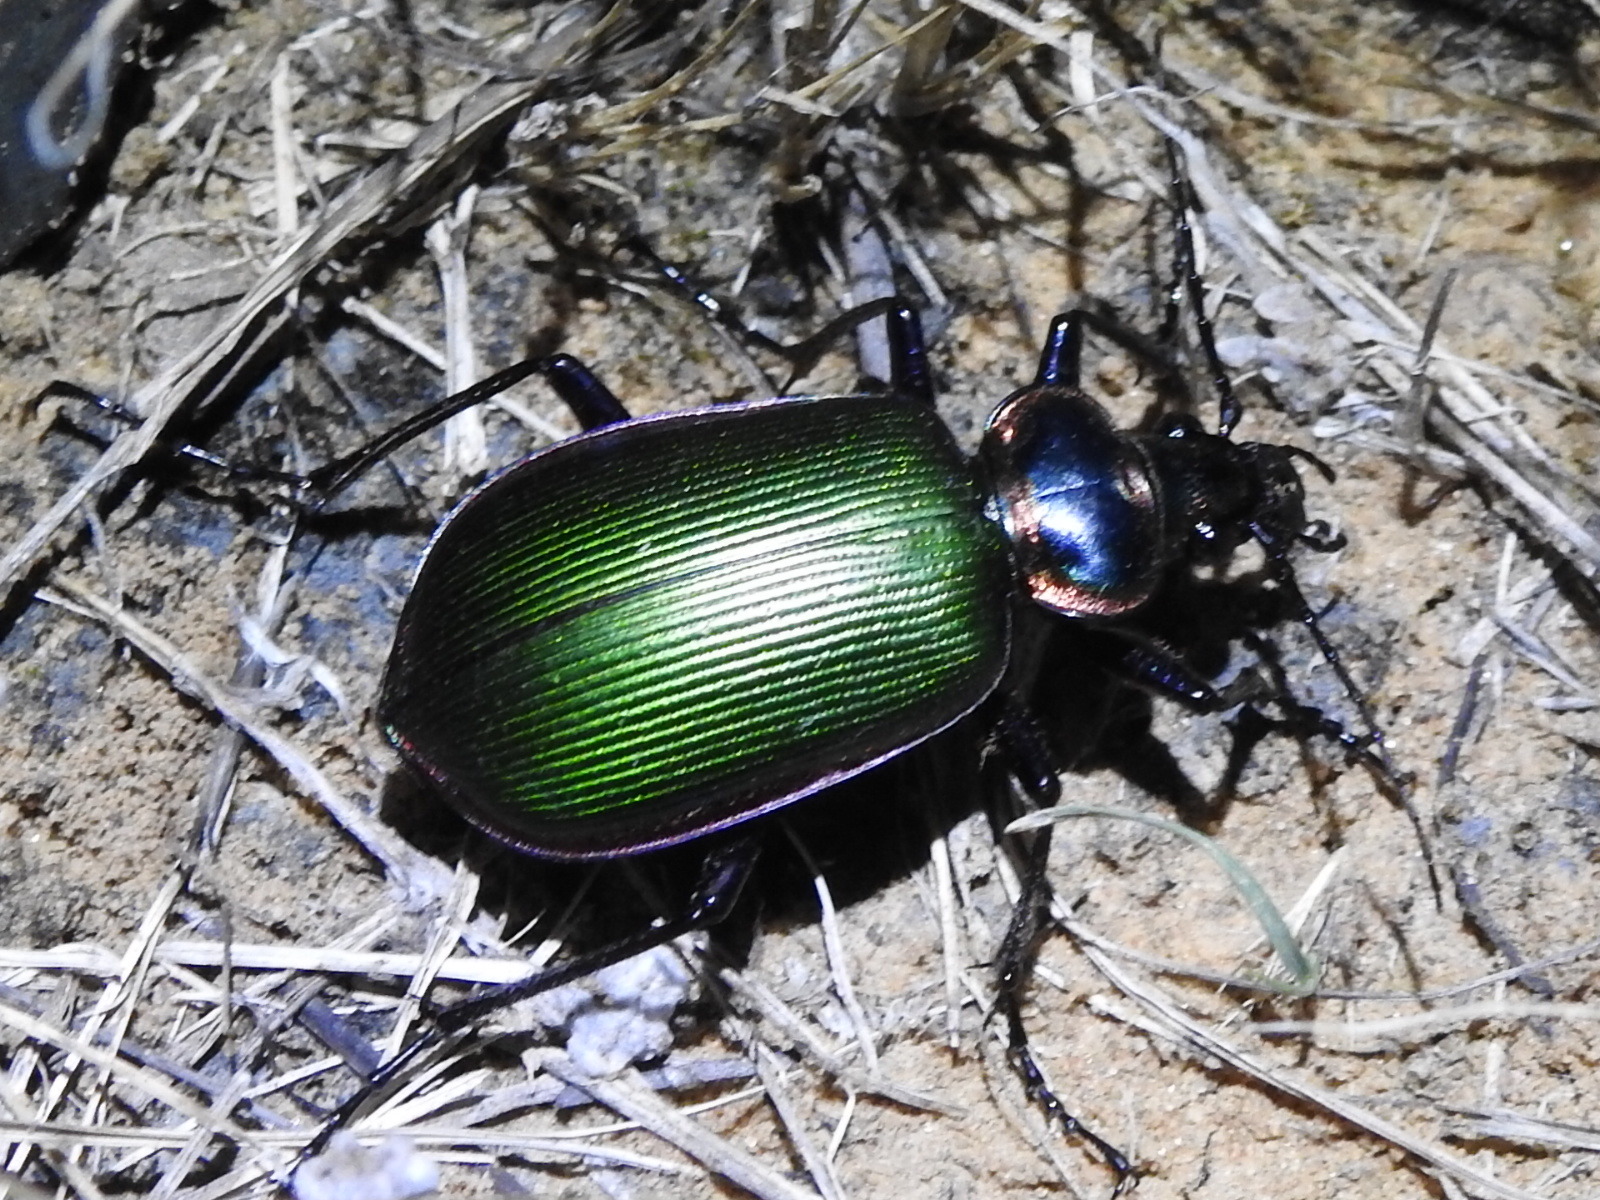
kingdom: Animalia
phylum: Arthropoda
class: Insecta
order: Coleoptera
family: Carabidae
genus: Calosoma
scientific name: Calosoma scrutator
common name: Fiery searcher beetle
